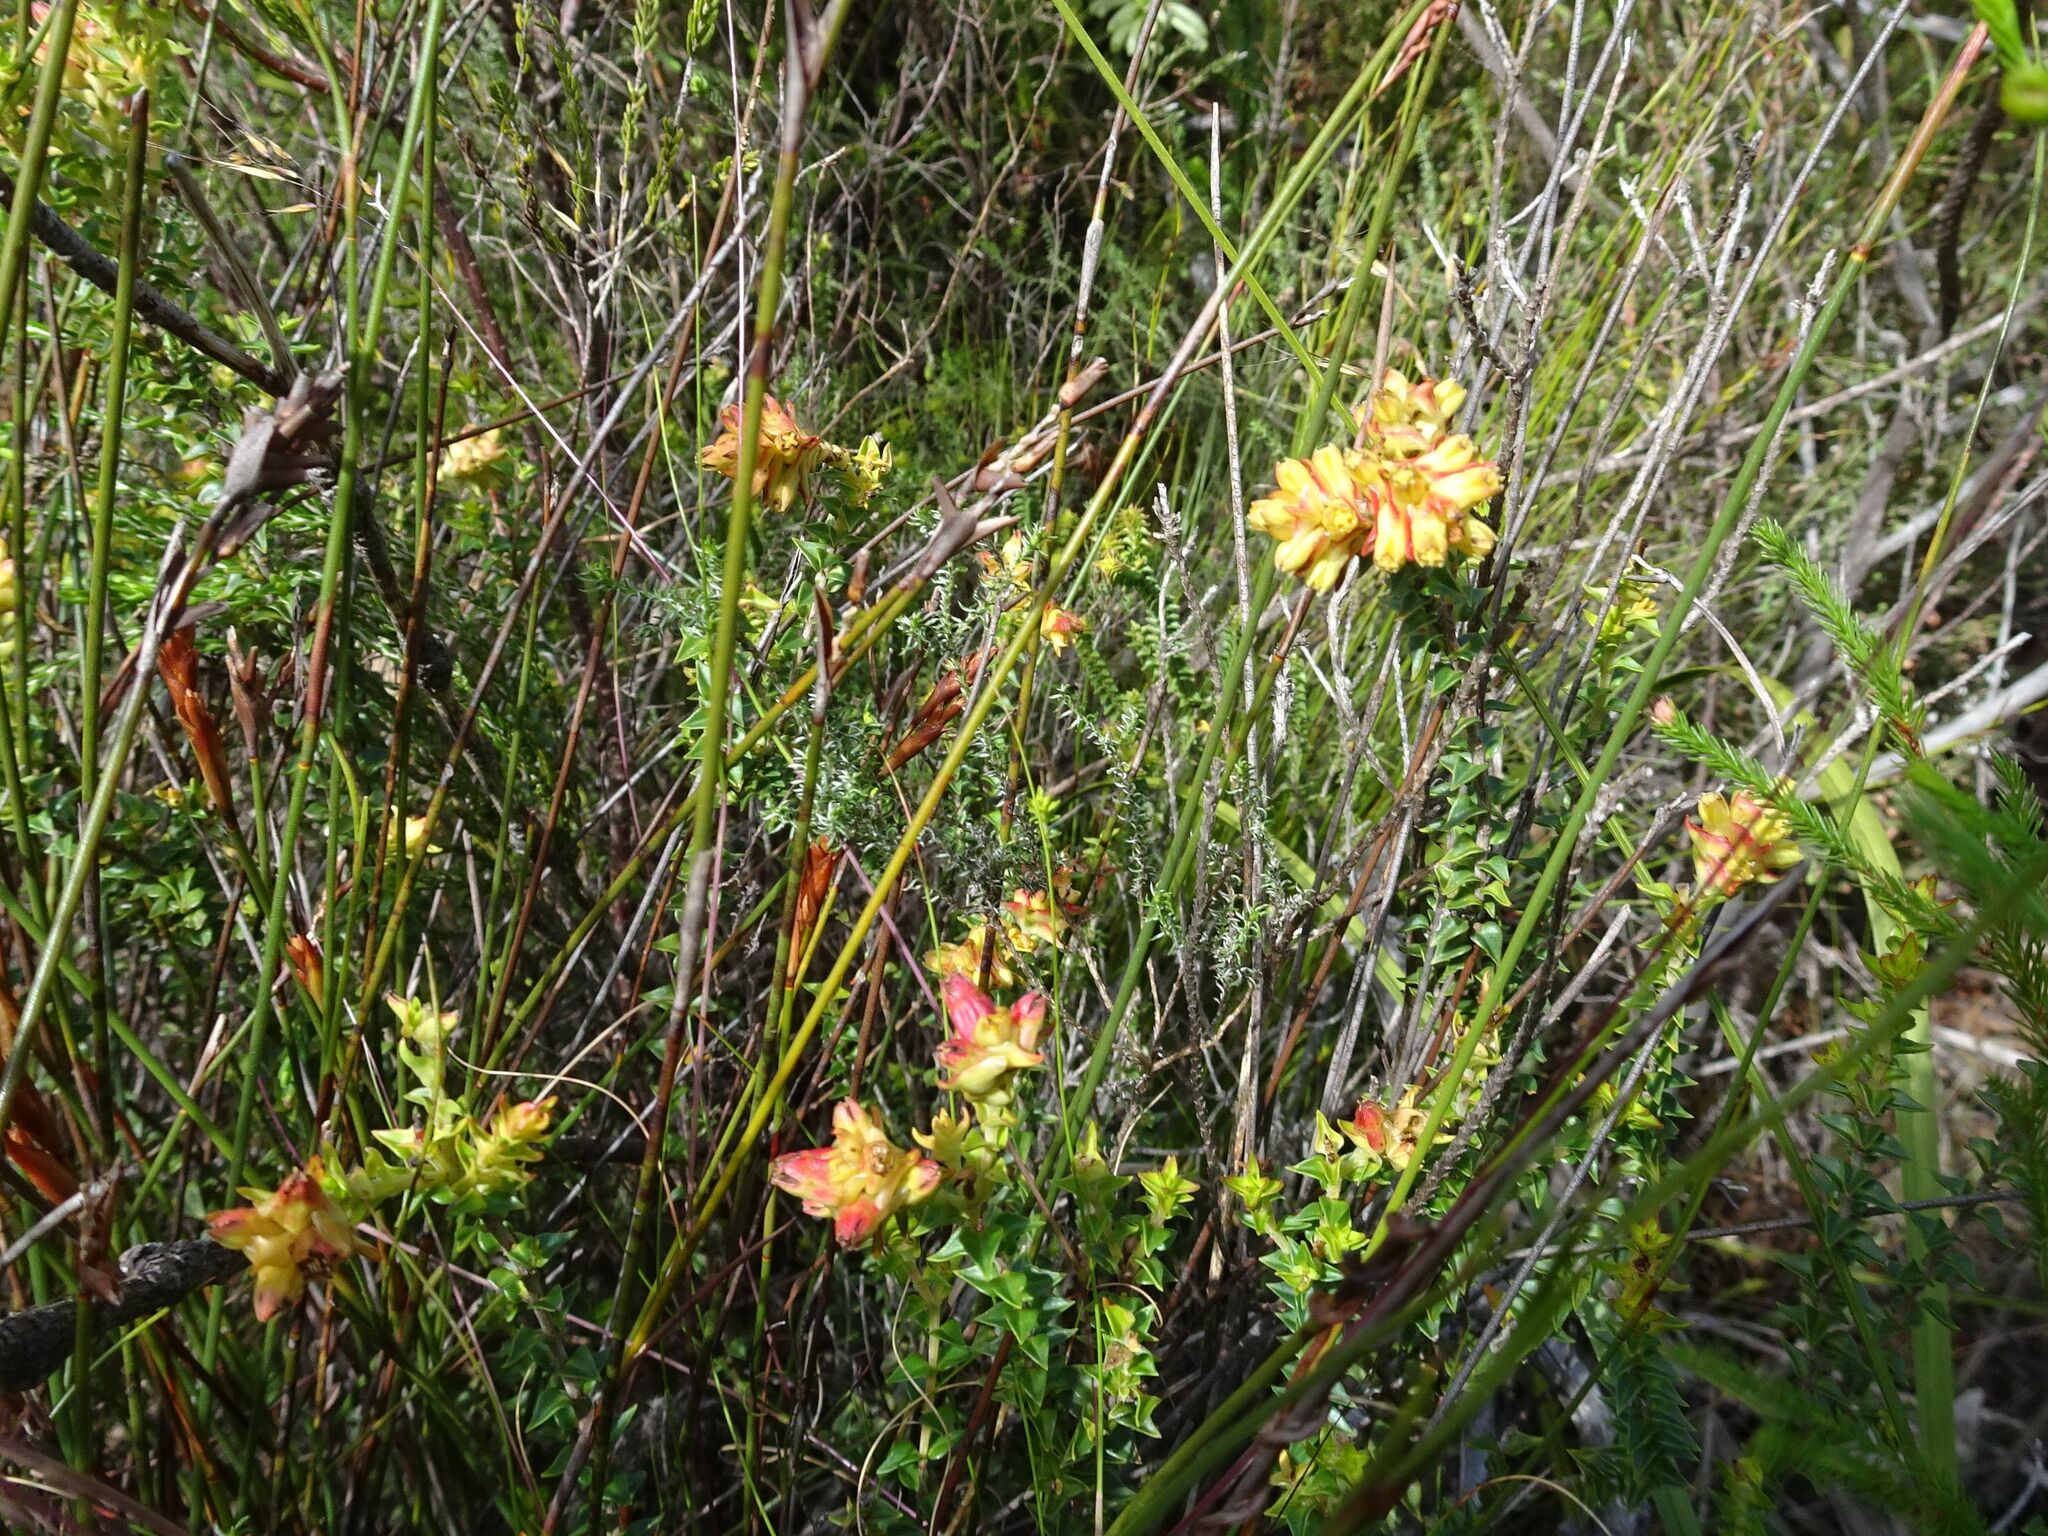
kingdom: Plantae
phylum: Tracheophyta
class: Magnoliopsida
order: Myrtales
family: Penaeaceae
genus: Penaea
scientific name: Penaea mucronata
